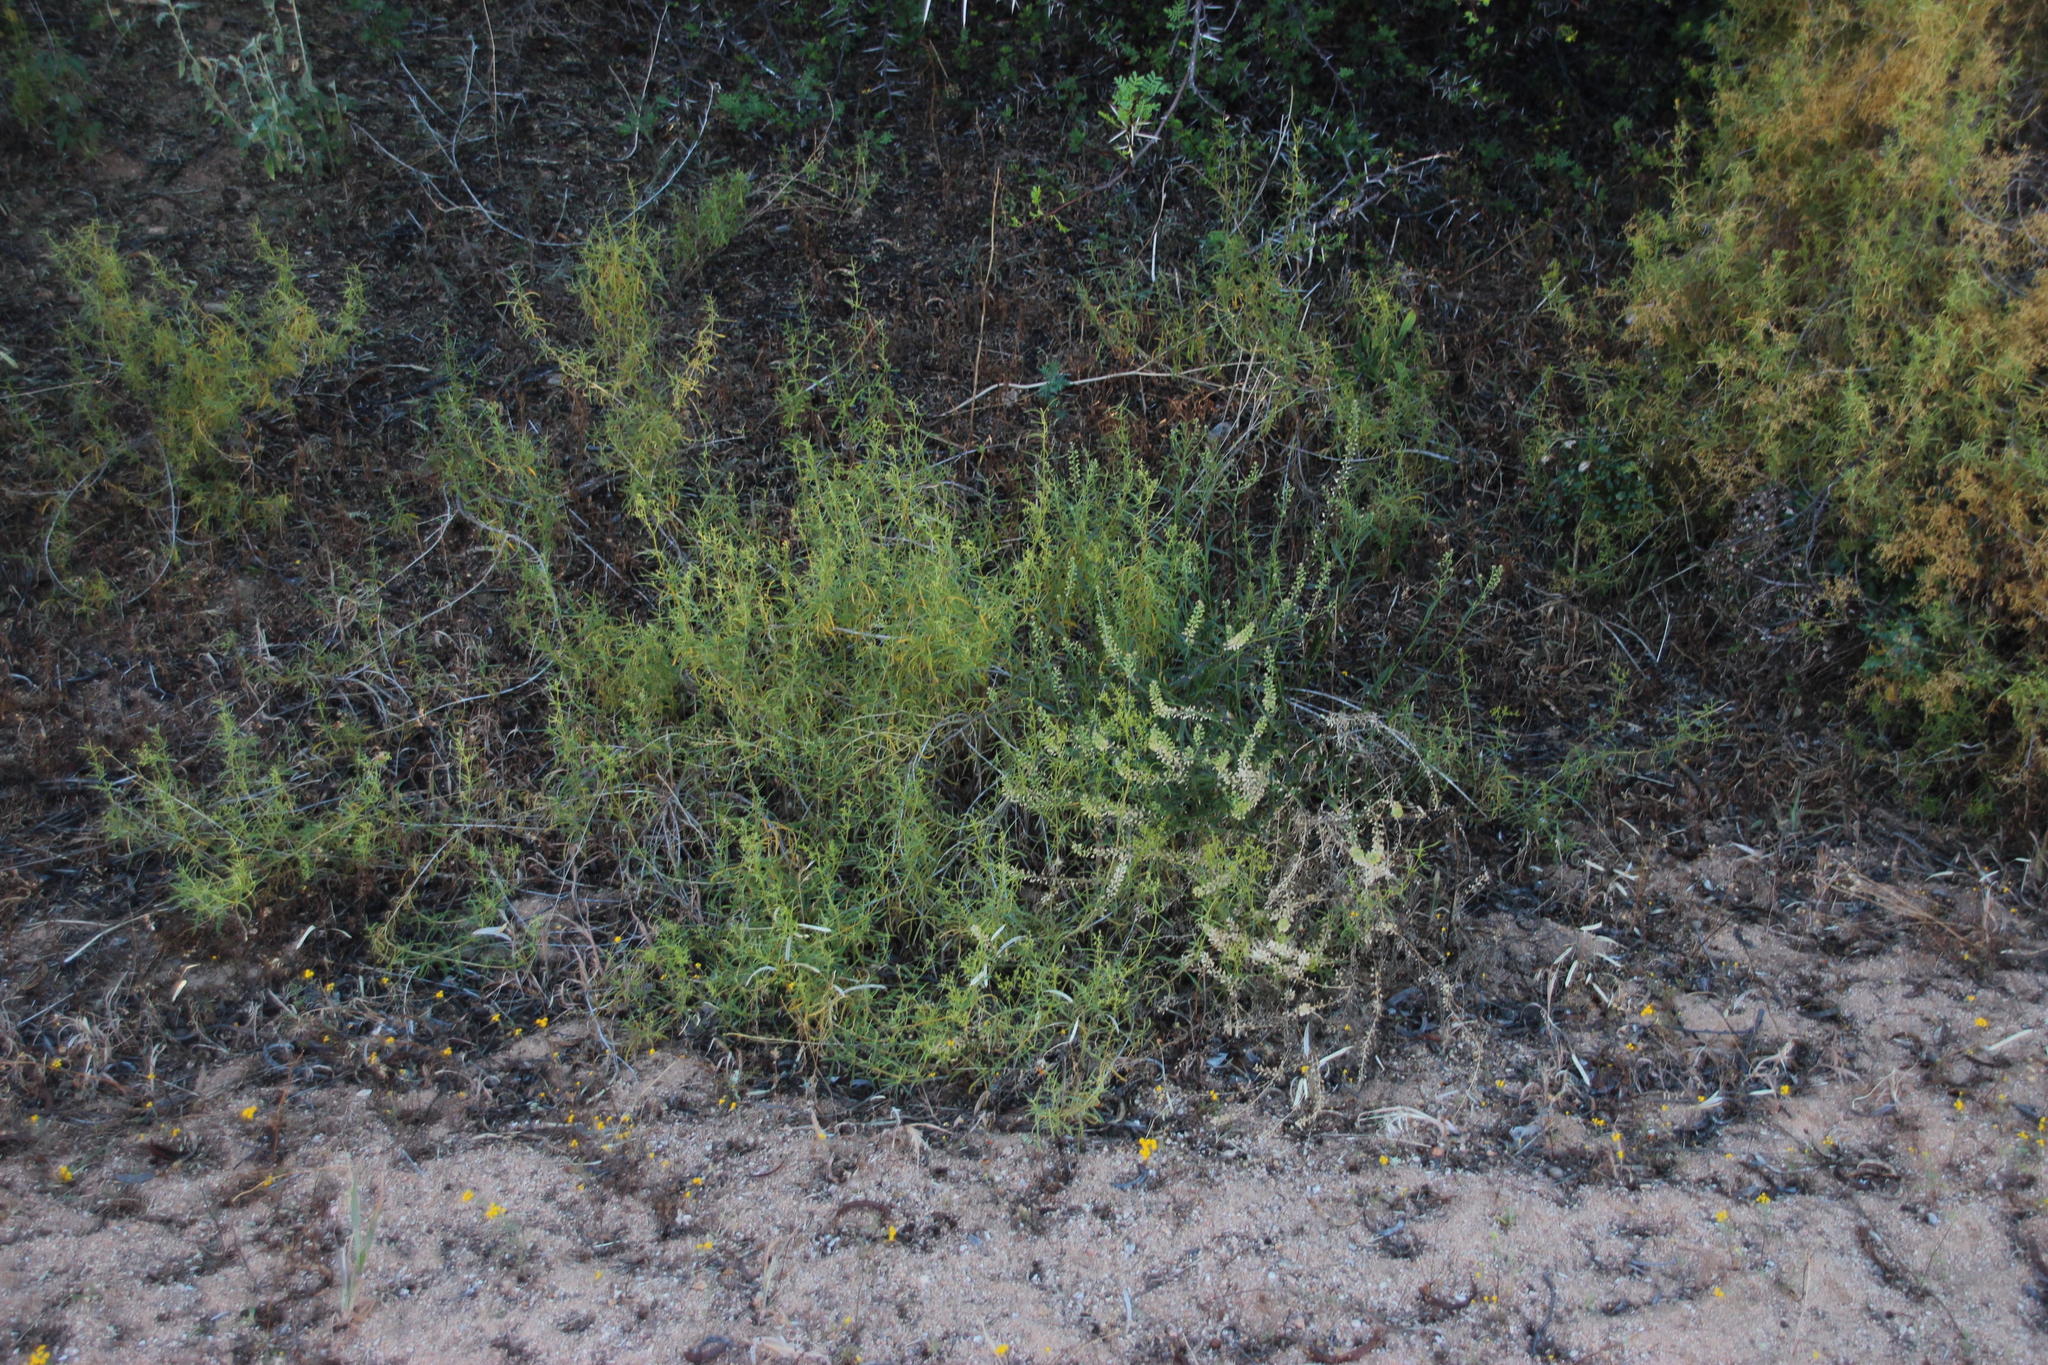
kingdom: Plantae
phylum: Tracheophyta
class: Magnoliopsida
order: Brassicales
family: Brassicaceae
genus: Lepidium
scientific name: Lepidium divaricatum
